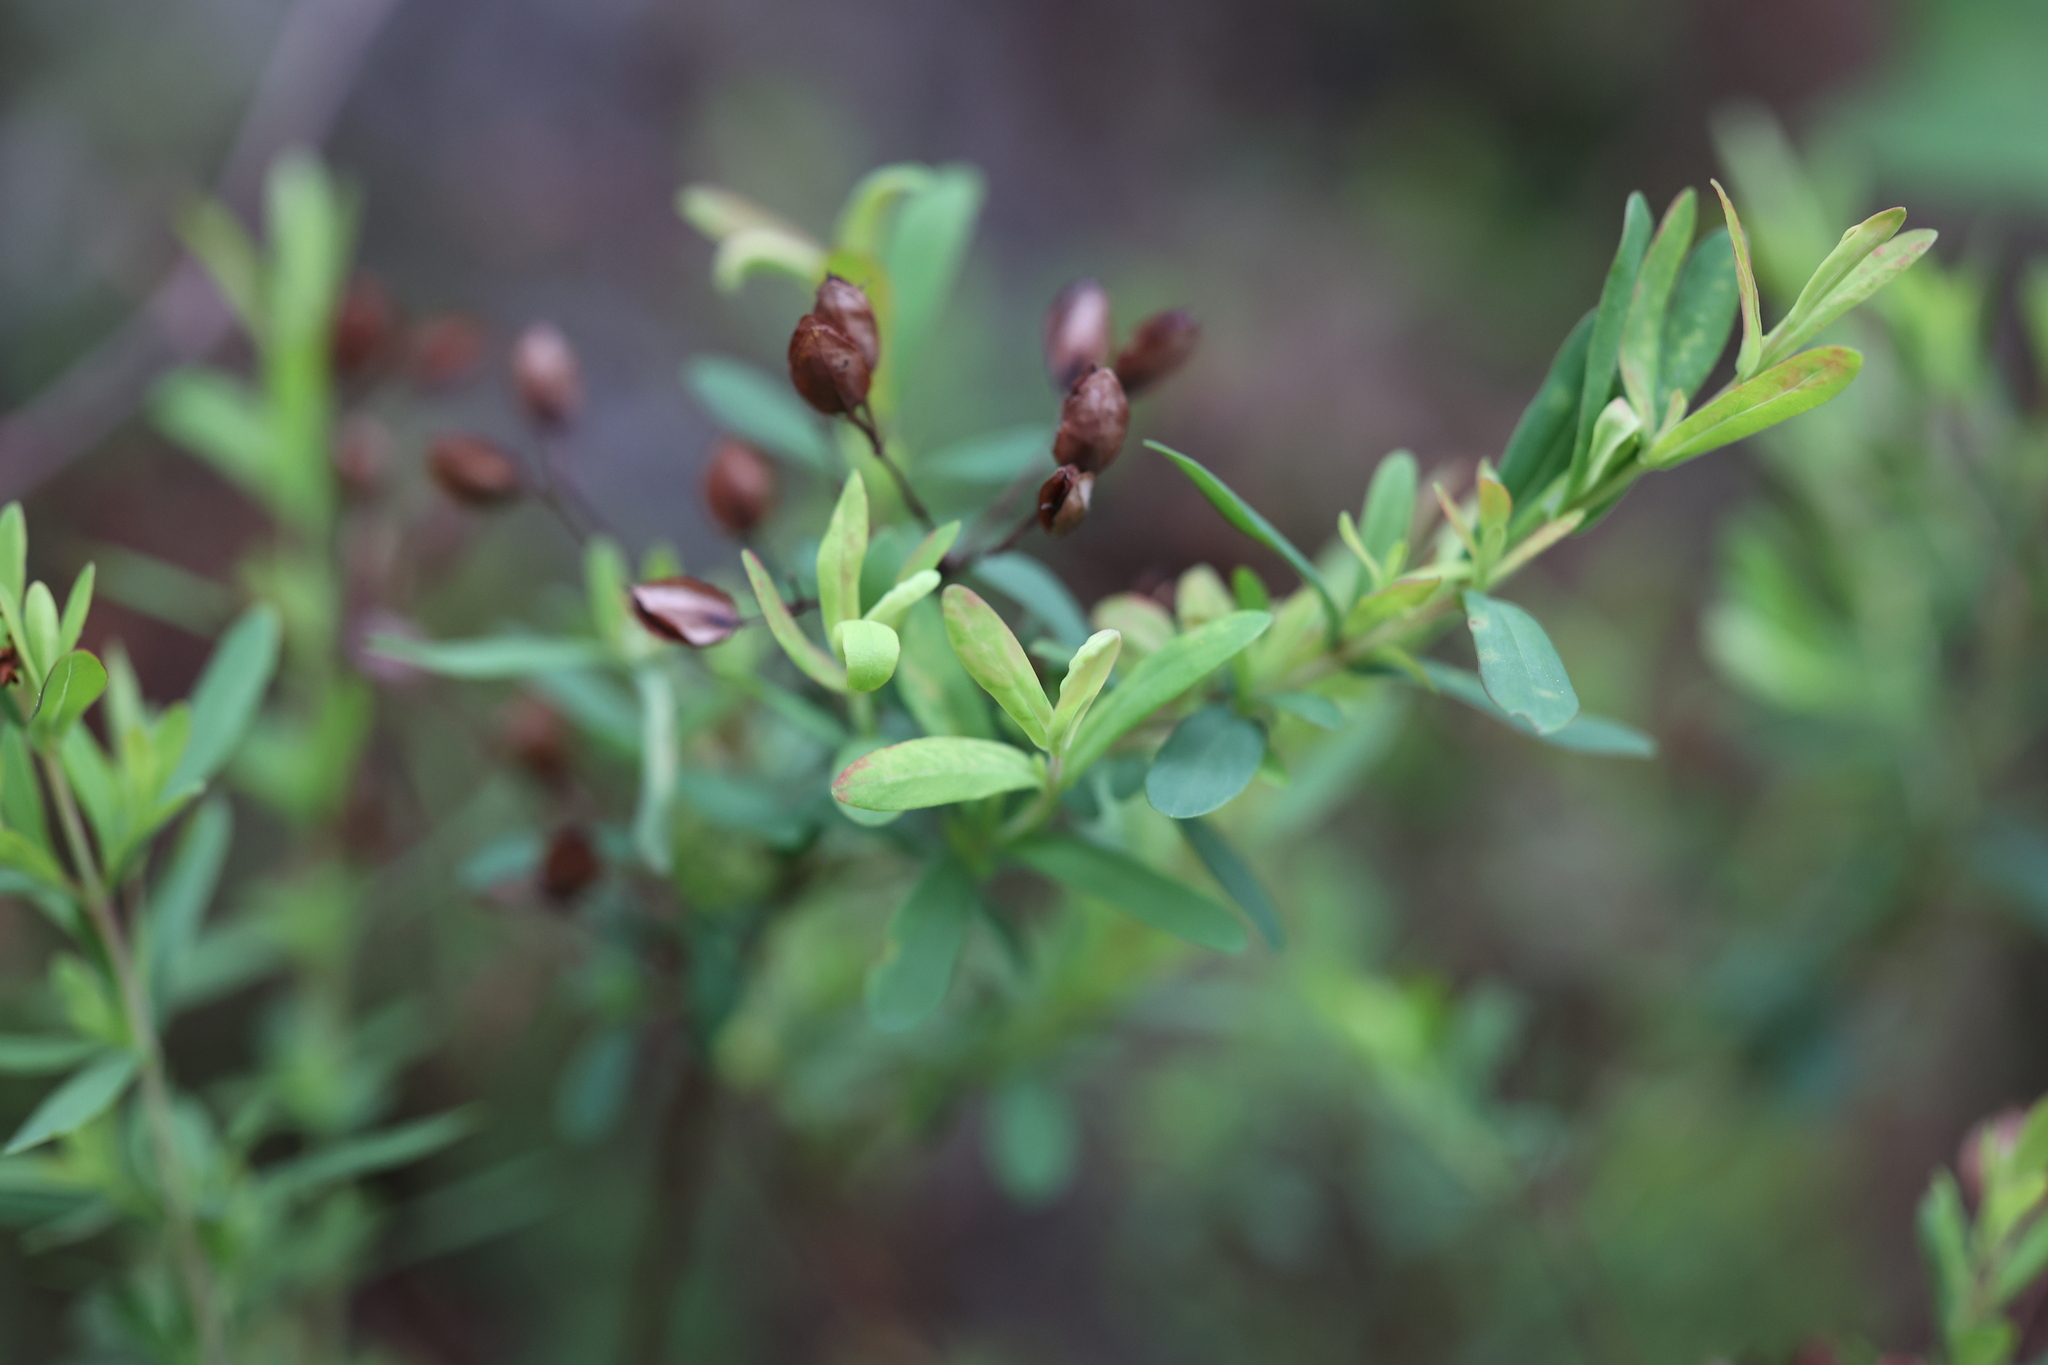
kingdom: Plantae
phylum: Tracheophyta
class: Magnoliopsida
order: Malpighiales
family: Hypericaceae
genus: Hypericum
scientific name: Hypericum hypericoides
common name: St. andrew's cross
